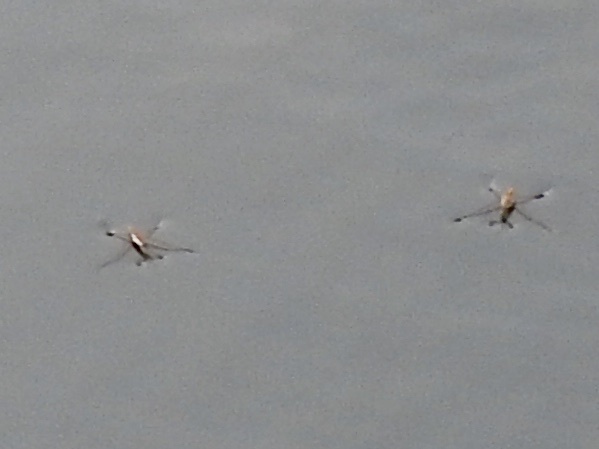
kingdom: Animalia
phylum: Arthropoda
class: Insecta
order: Hemiptera
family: Gerridae
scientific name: Gerridae
